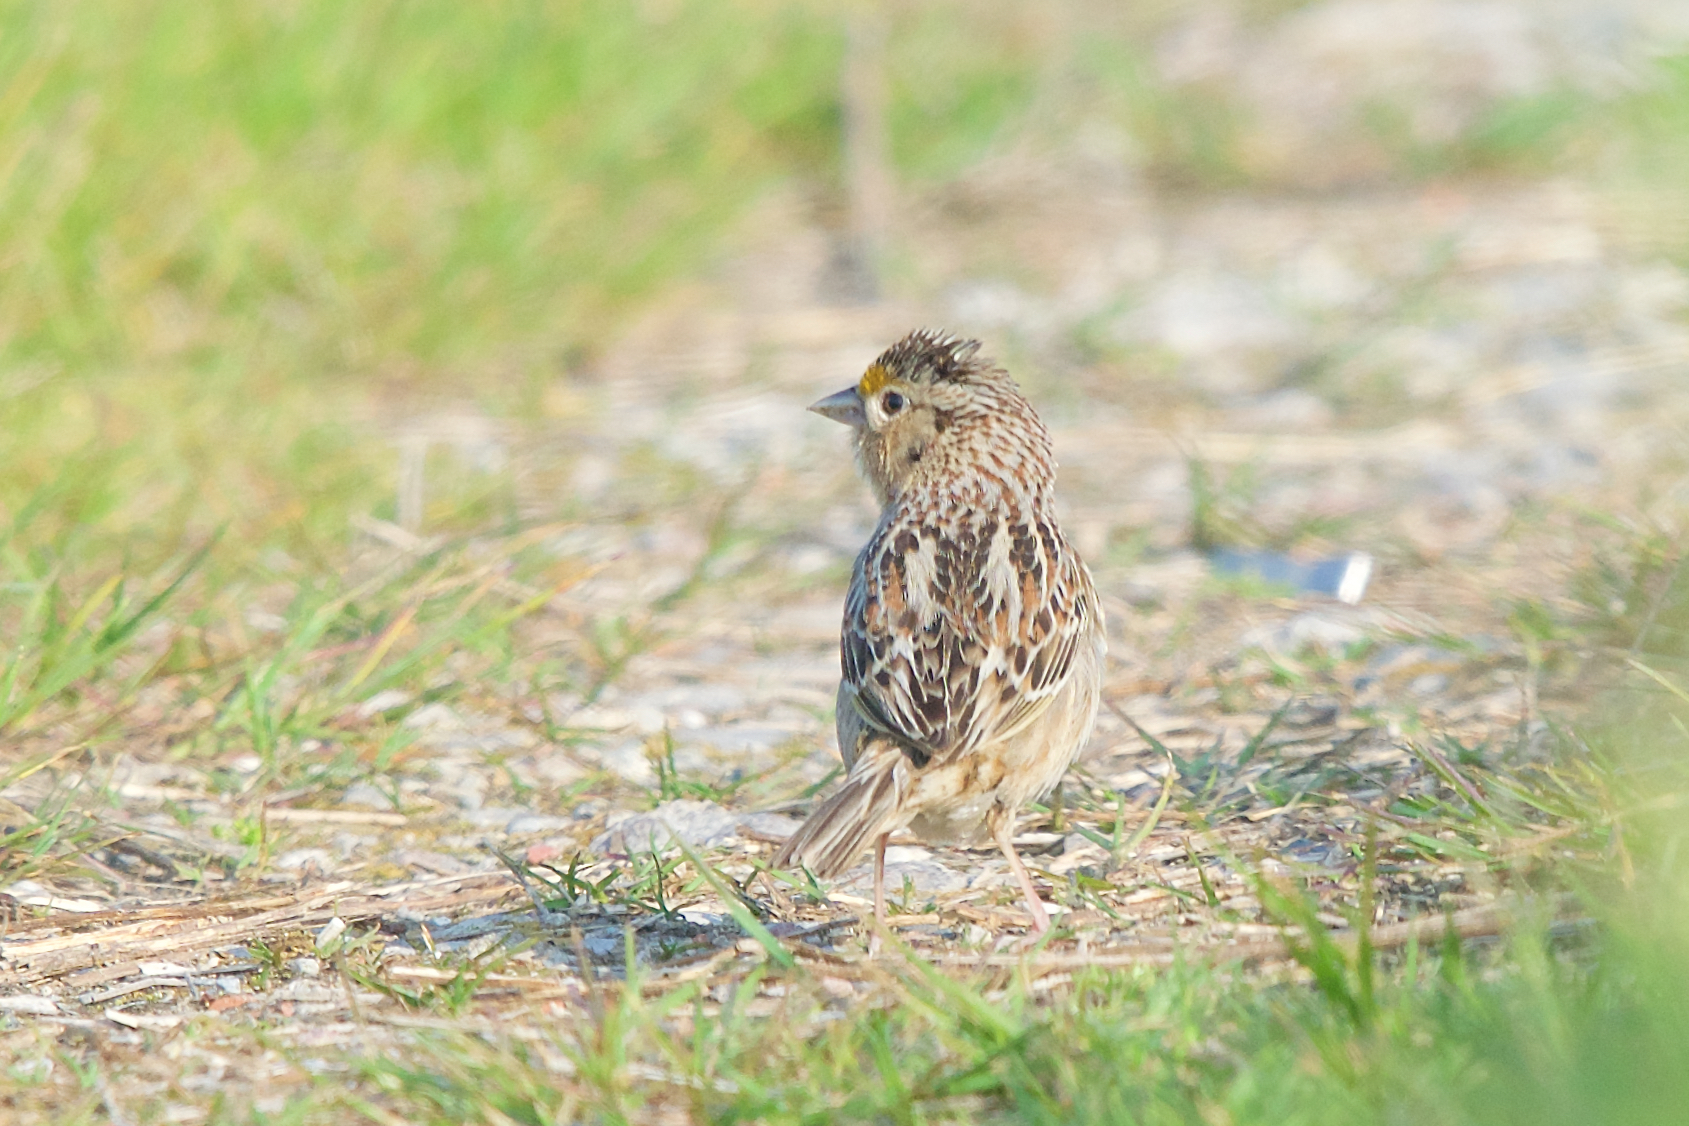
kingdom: Animalia
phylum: Chordata
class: Aves
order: Passeriformes
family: Passerellidae
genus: Ammodramus
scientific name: Ammodramus savannarum
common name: Grasshopper sparrow
